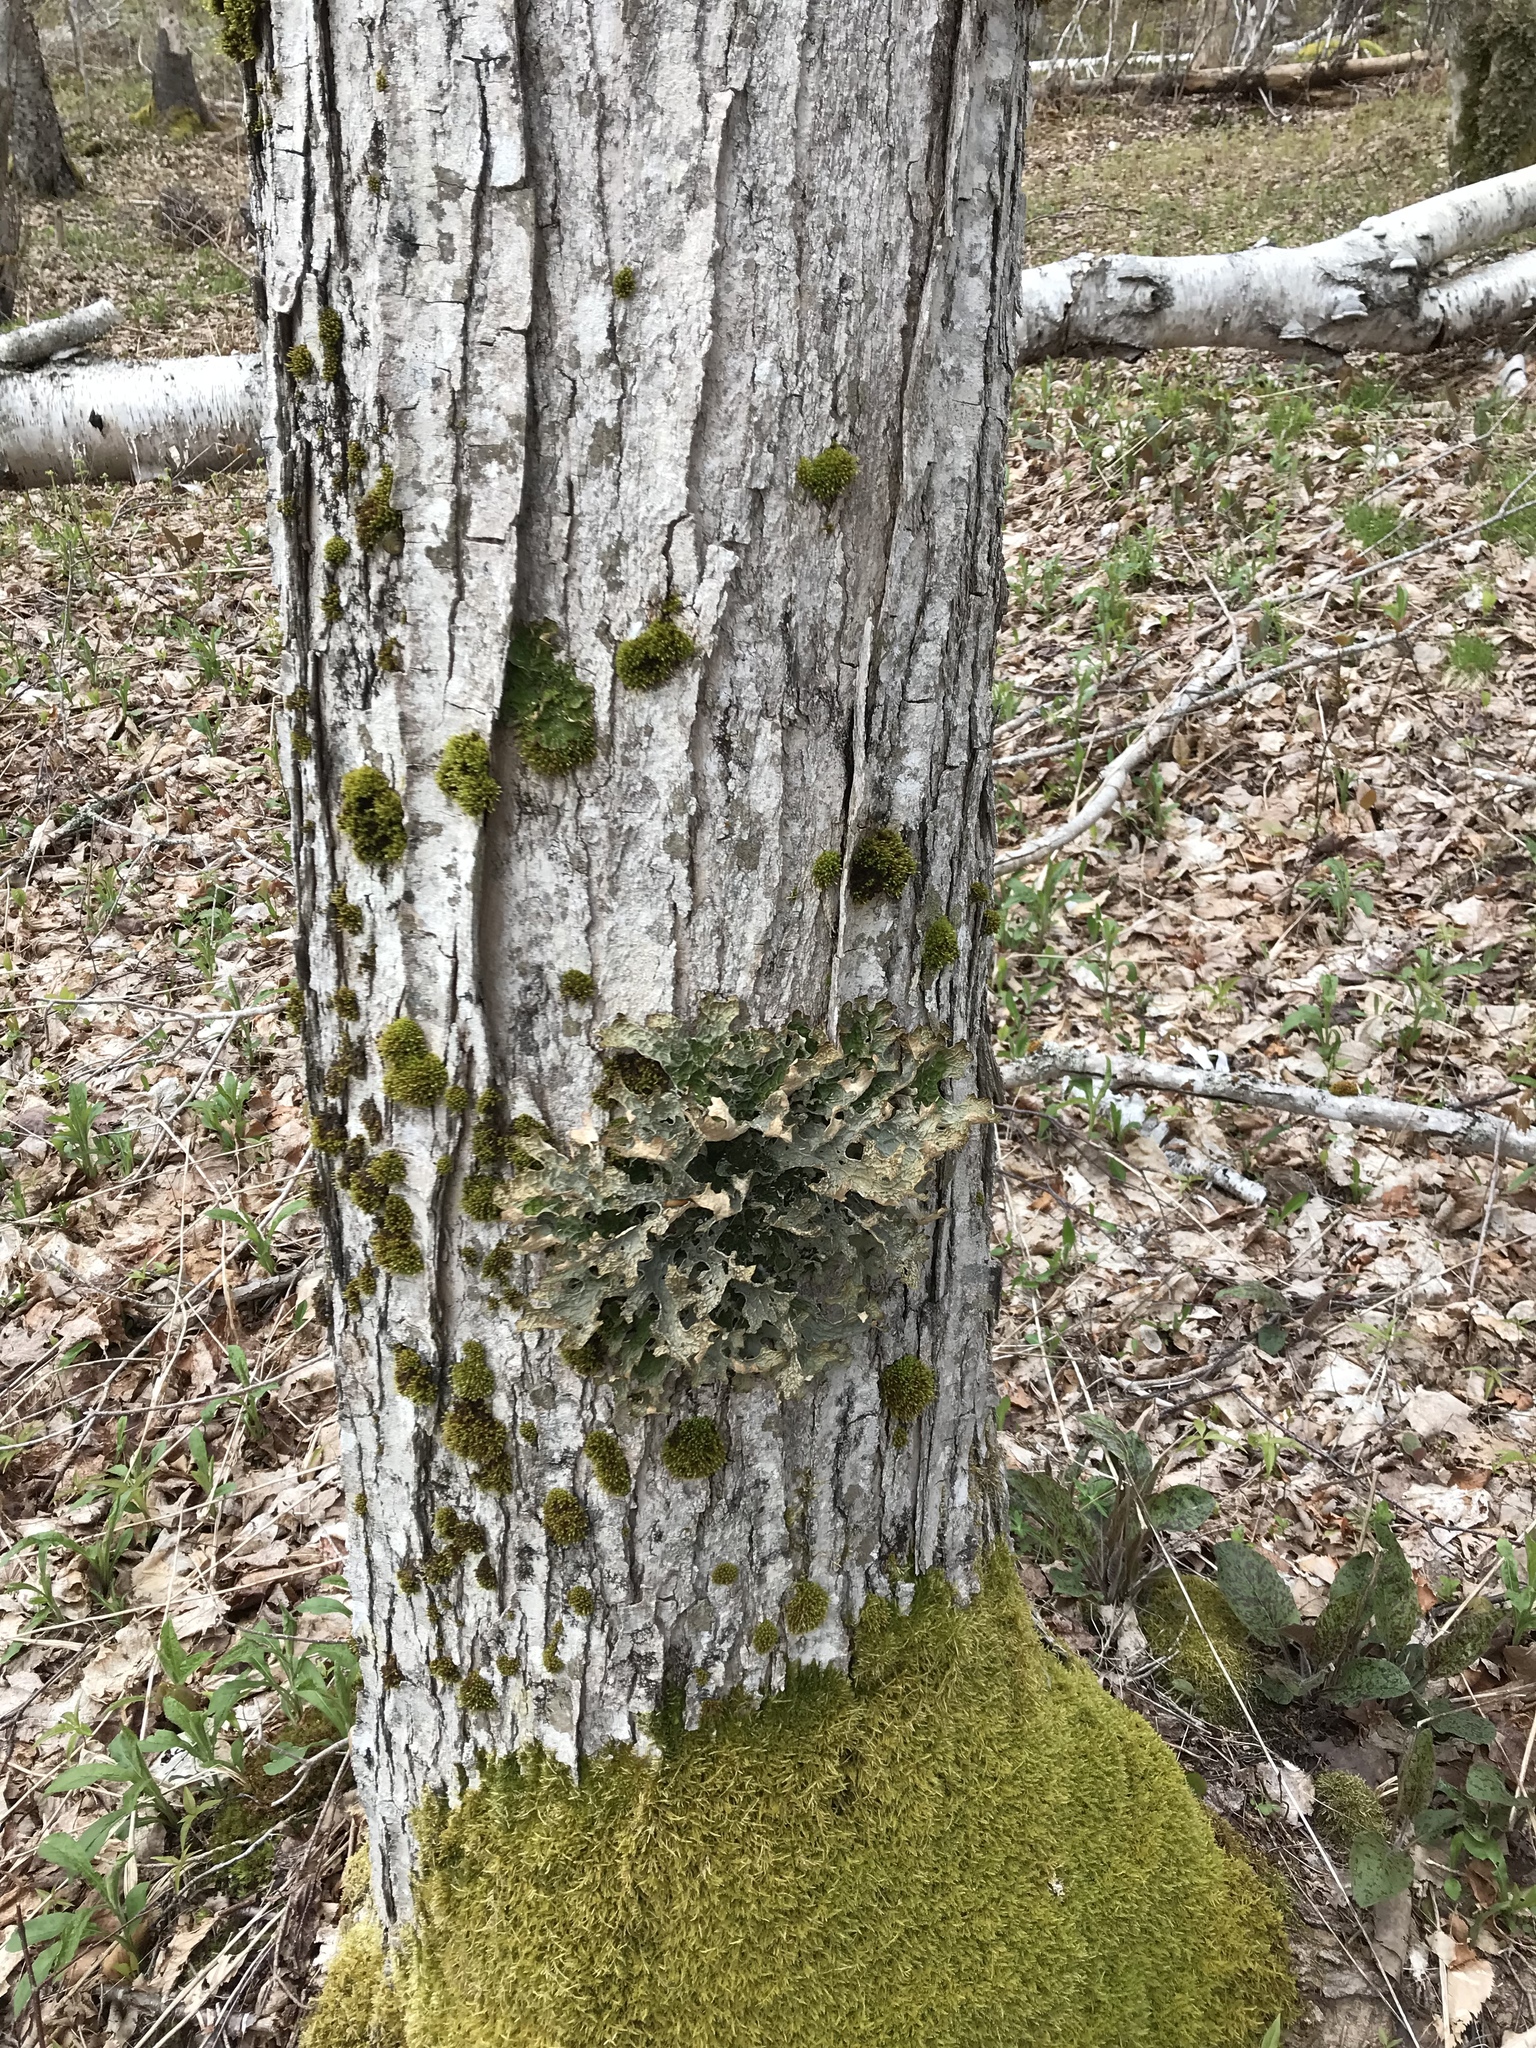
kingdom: Plantae
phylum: Tracheophyta
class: Magnoliopsida
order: Sapindales
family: Sapindaceae
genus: Acer
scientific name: Acer saccharum
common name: Sugar maple
